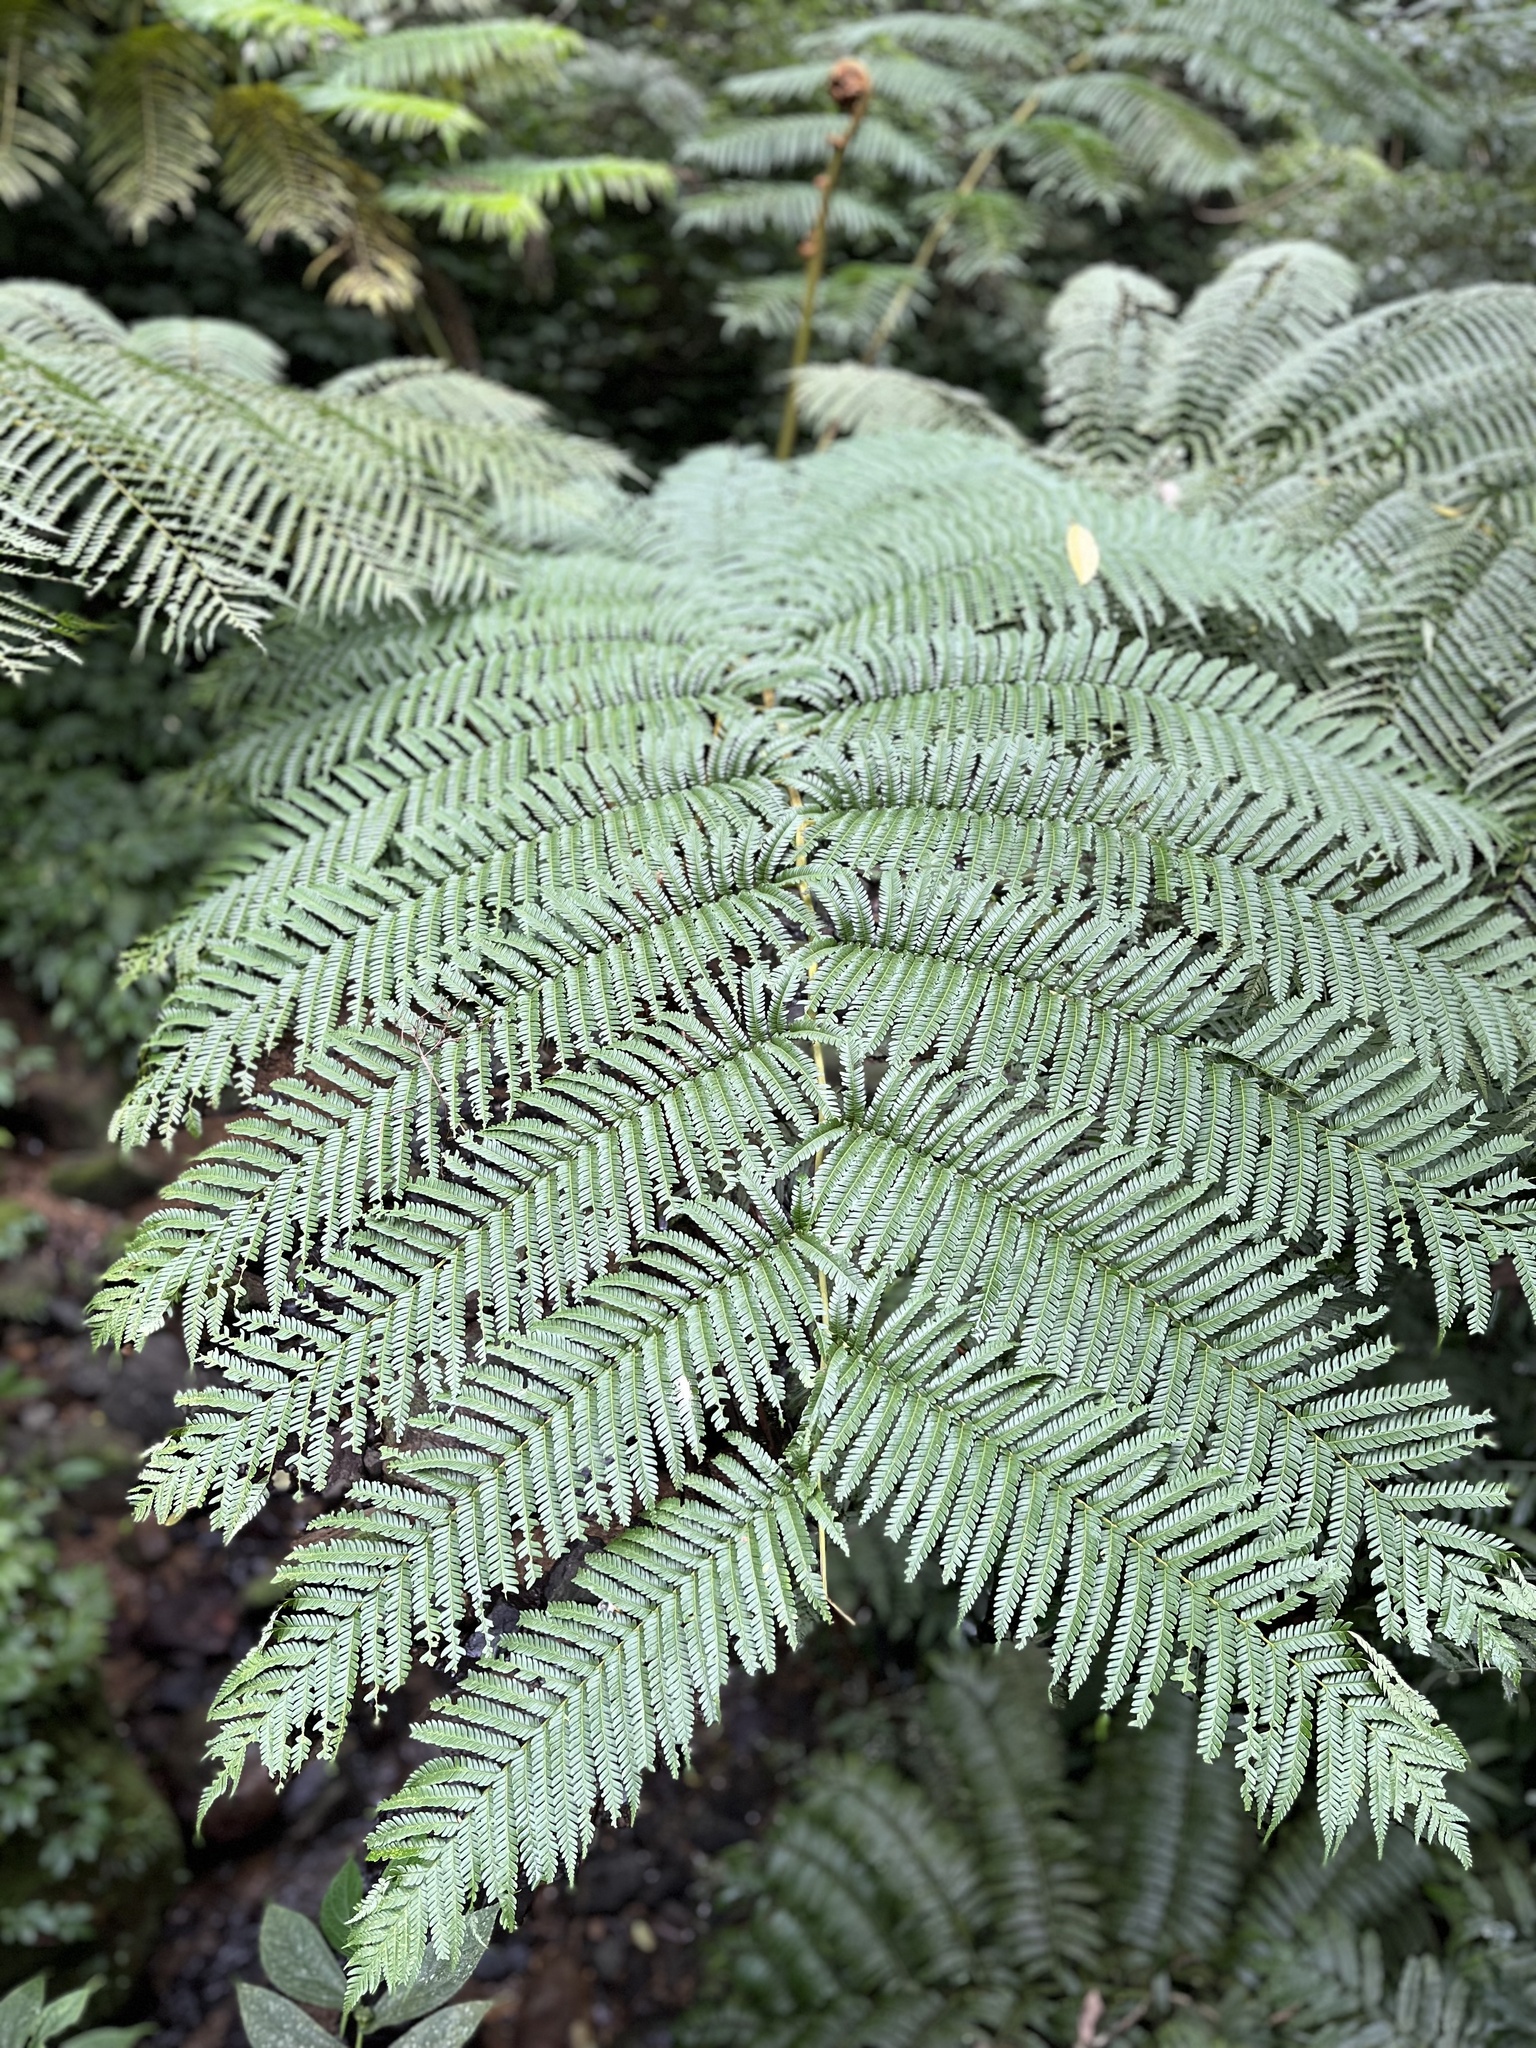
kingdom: Plantae
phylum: Tracheophyta
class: Polypodiopsida
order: Cyatheales
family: Cyatheaceae
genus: Alsophila
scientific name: Alsophila lepifera
